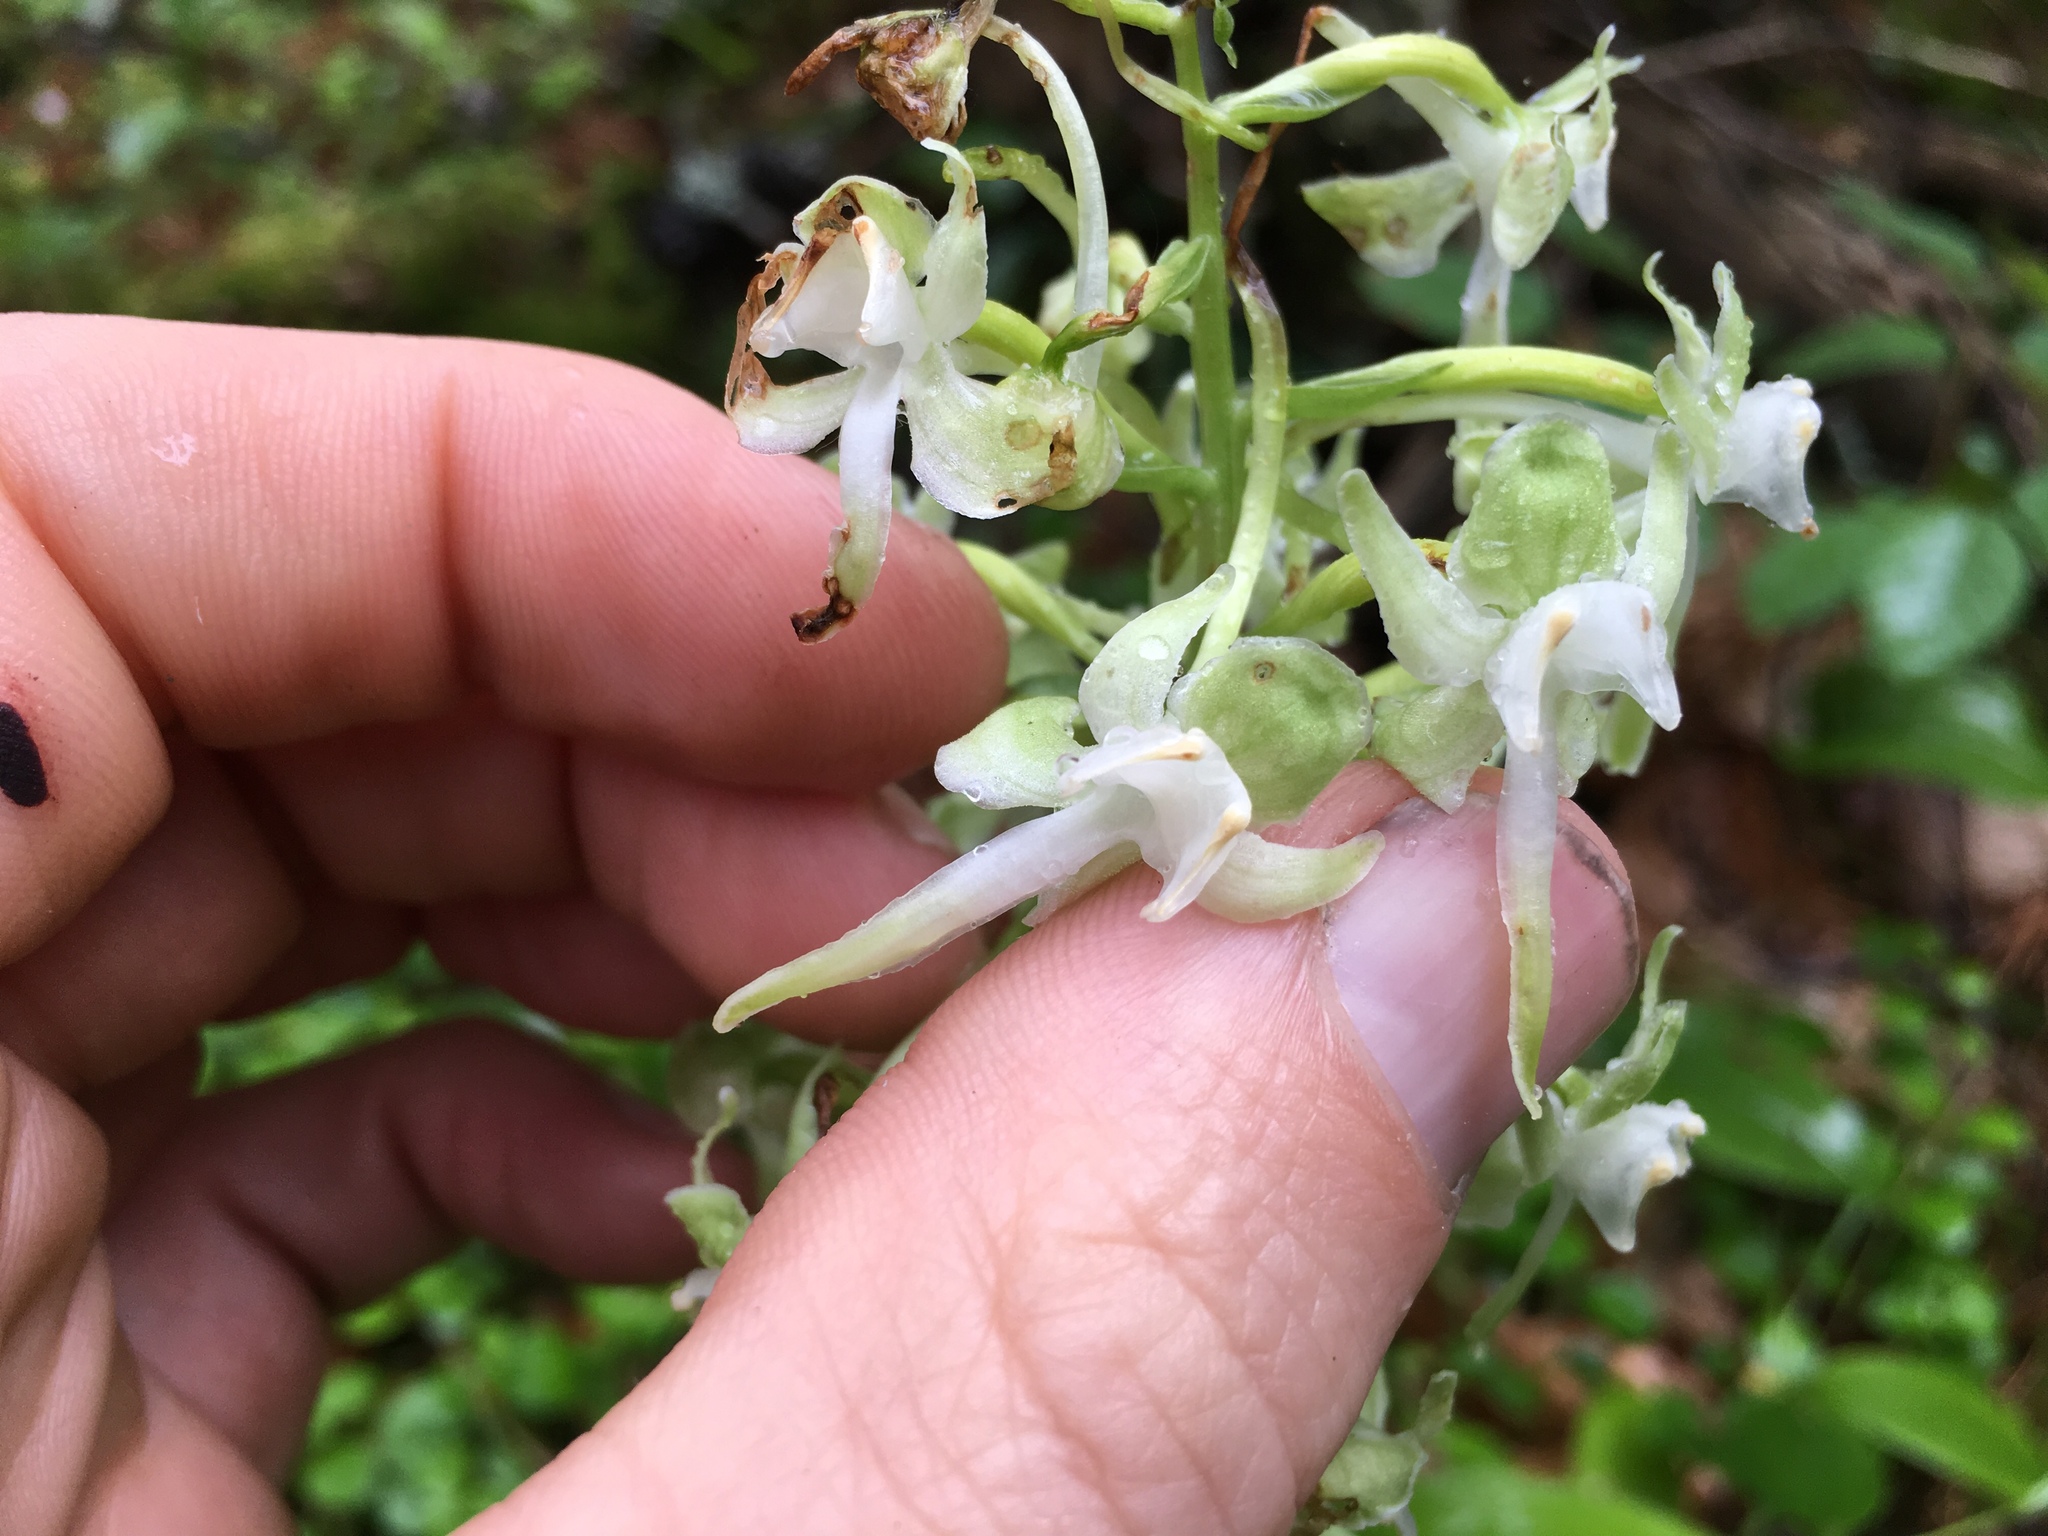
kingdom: Plantae
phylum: Tracheophyta
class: Liliopsida
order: Asparagales
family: Orchidaceae
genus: Platanthera
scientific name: Platanthera orbiculata
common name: Large round-leaved orchid
